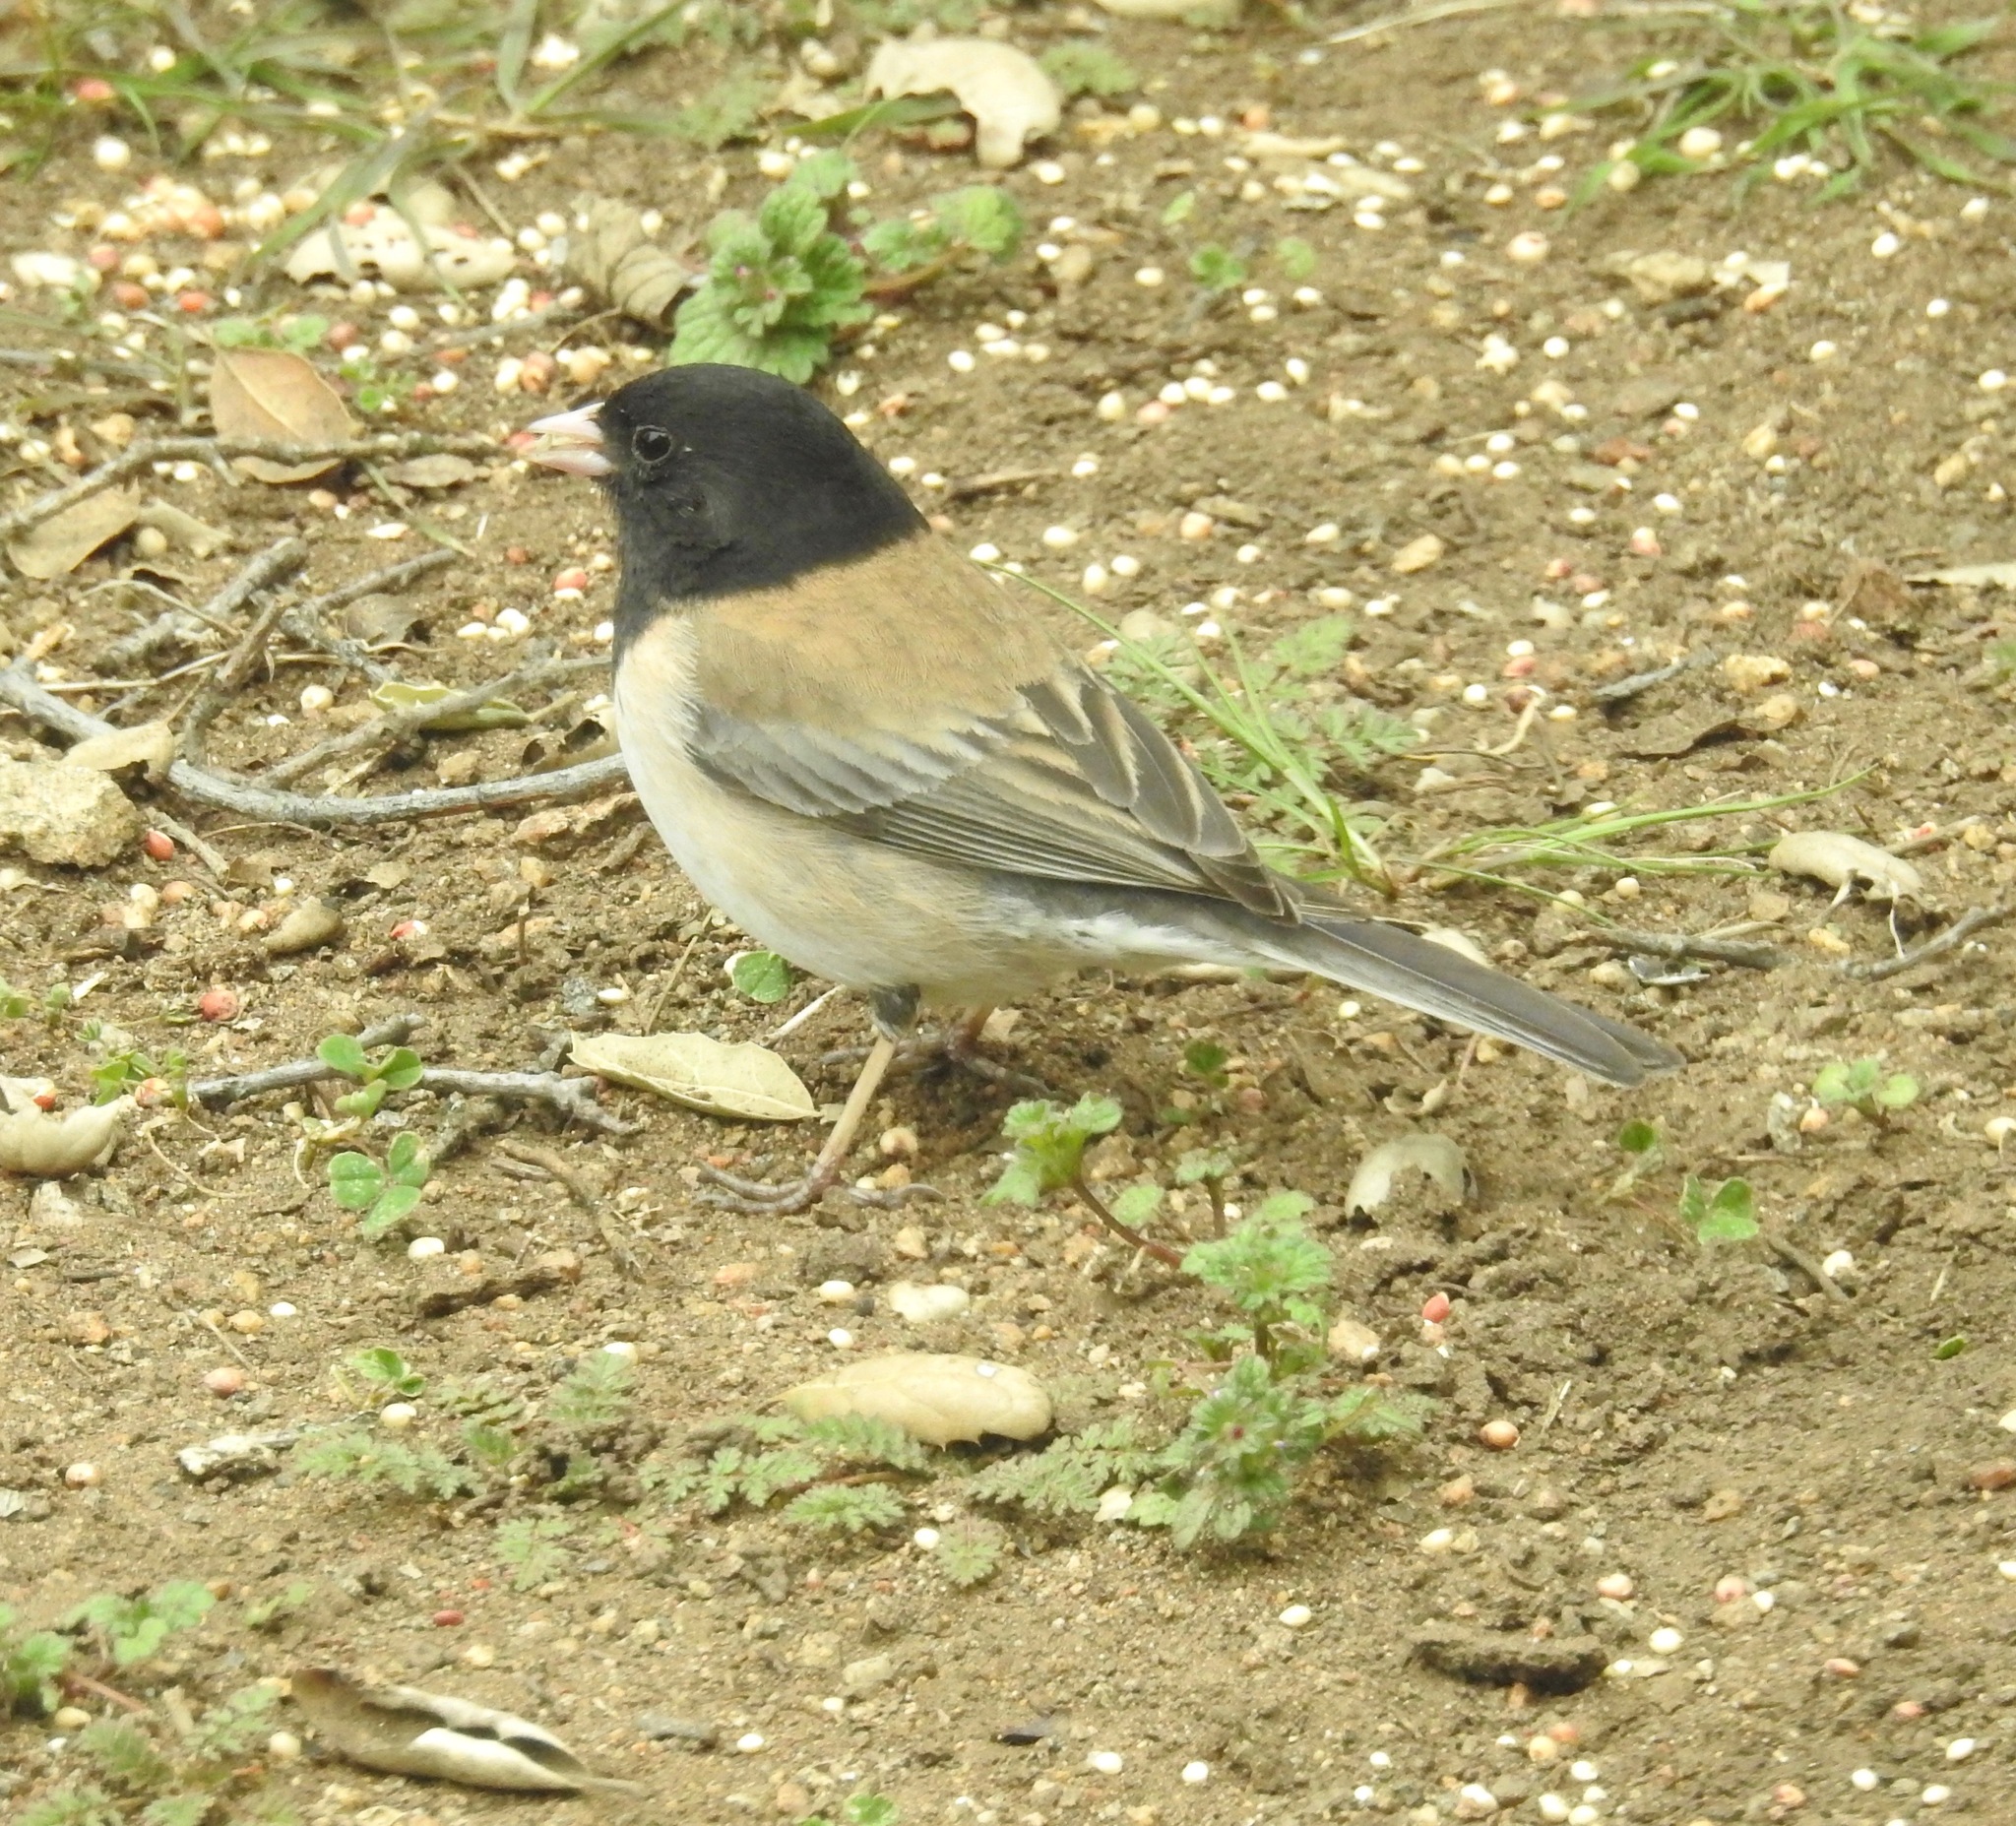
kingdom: Animalia
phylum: Chordata
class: Aves
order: Passeriformes
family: Passerellidae
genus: Junco
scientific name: Junco hyemalis
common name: Dark-eyed junco
